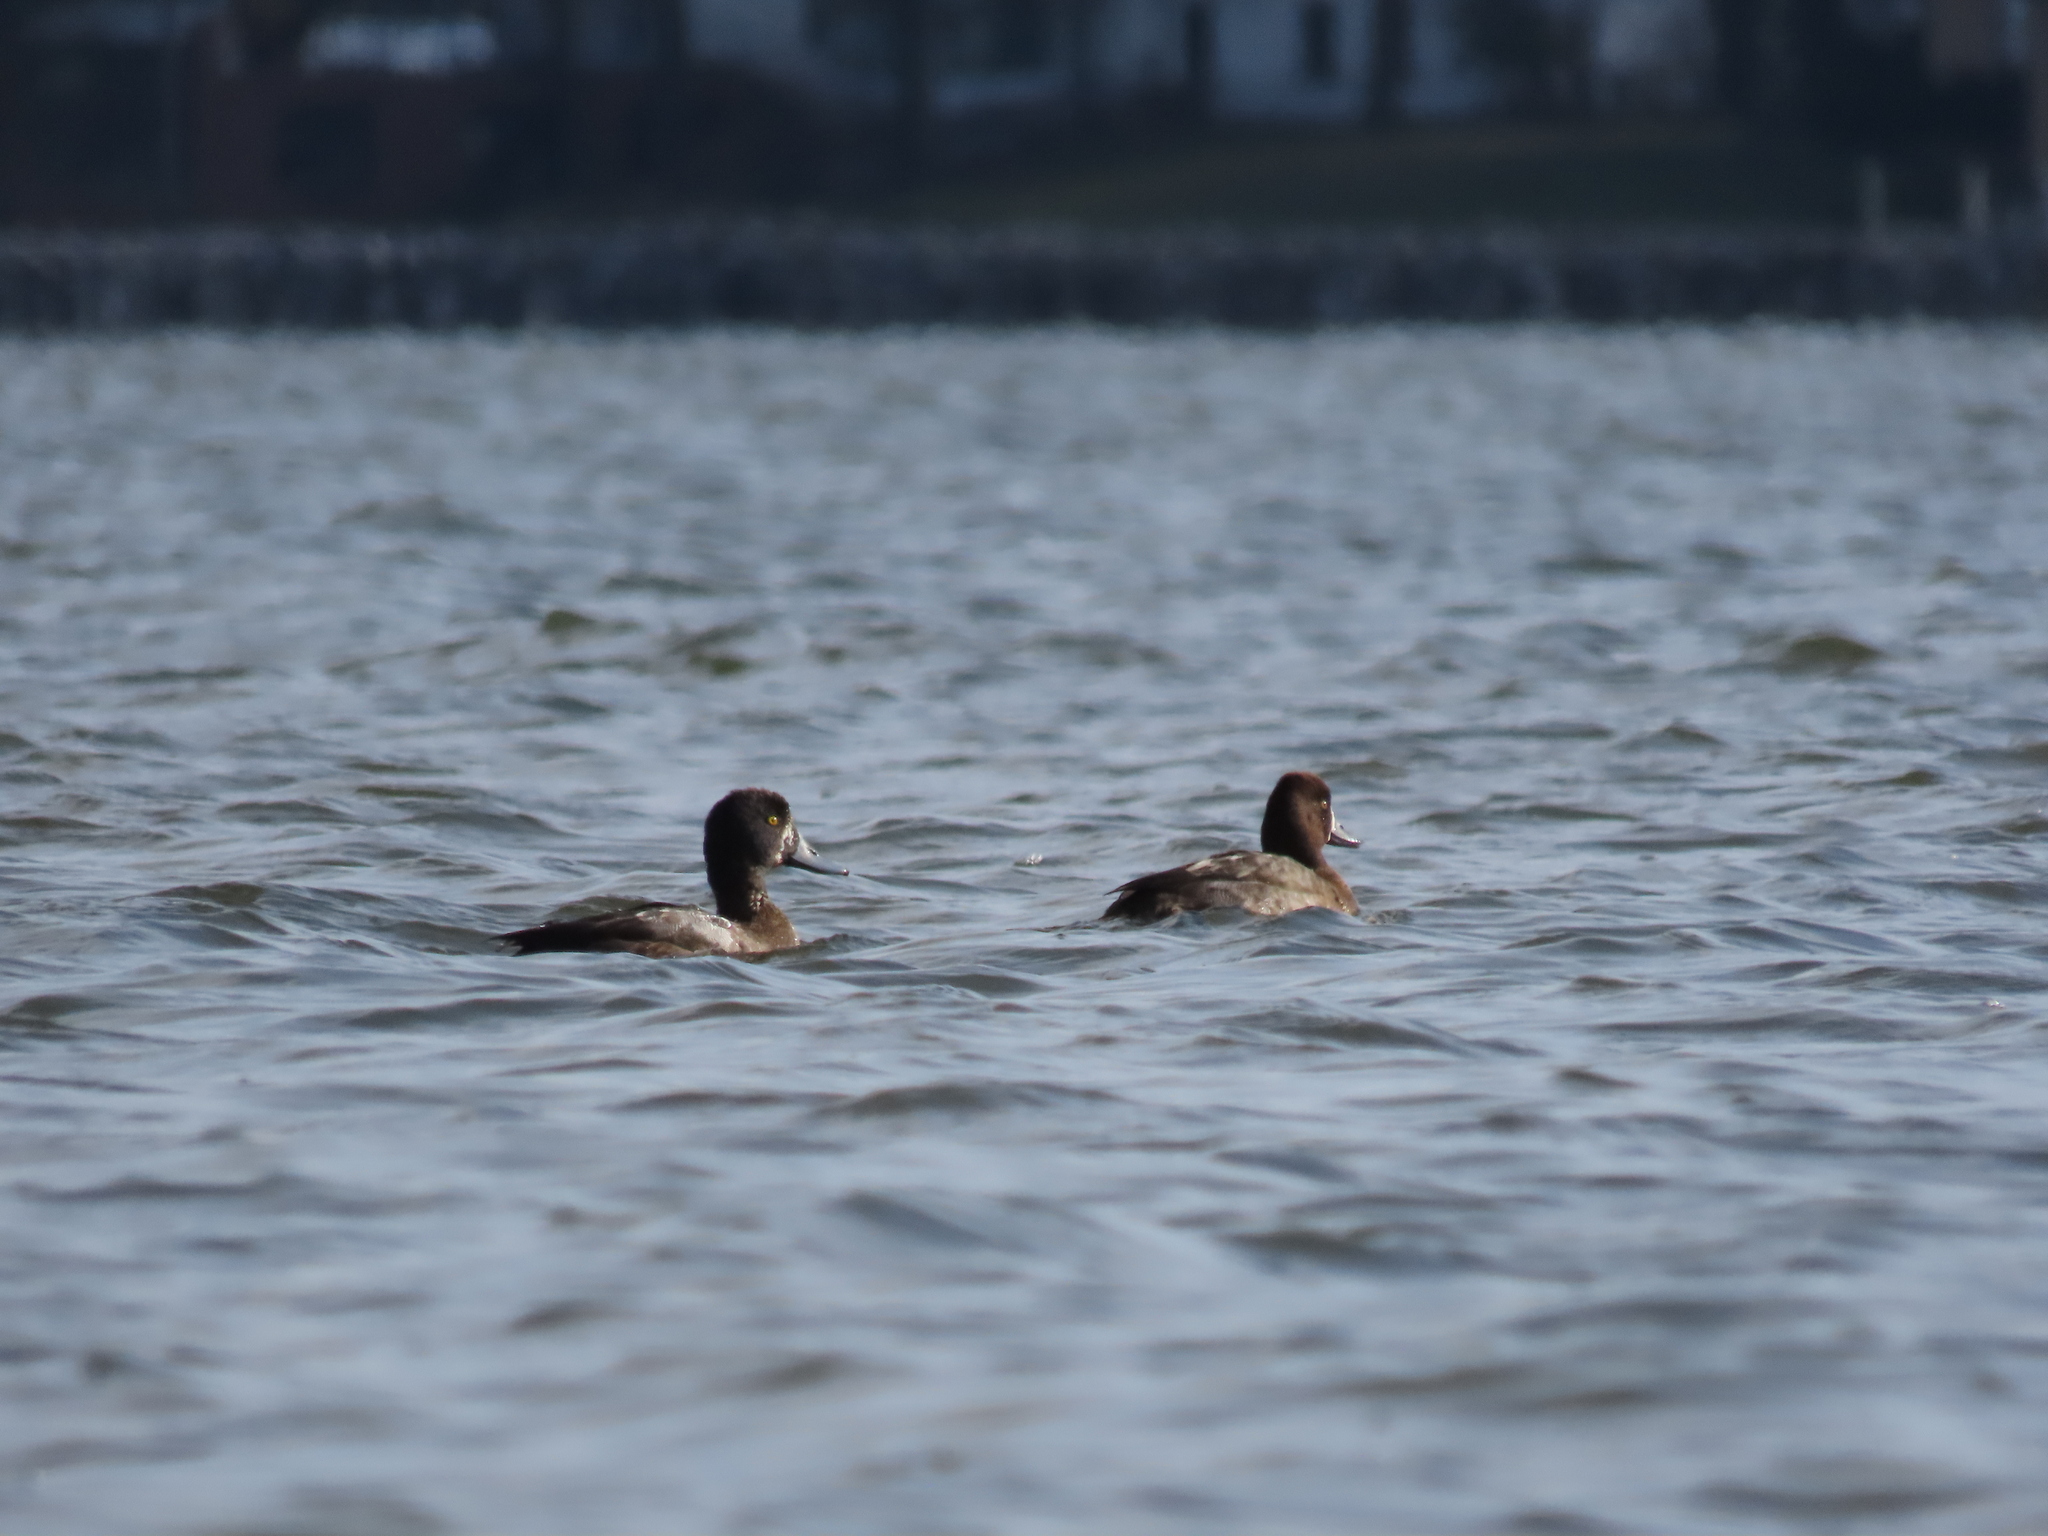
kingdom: Animalia
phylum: Chordata
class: Aves
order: Anseriformes
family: Anatidae
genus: Aythya
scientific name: Aythya marila
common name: Greater scaup
